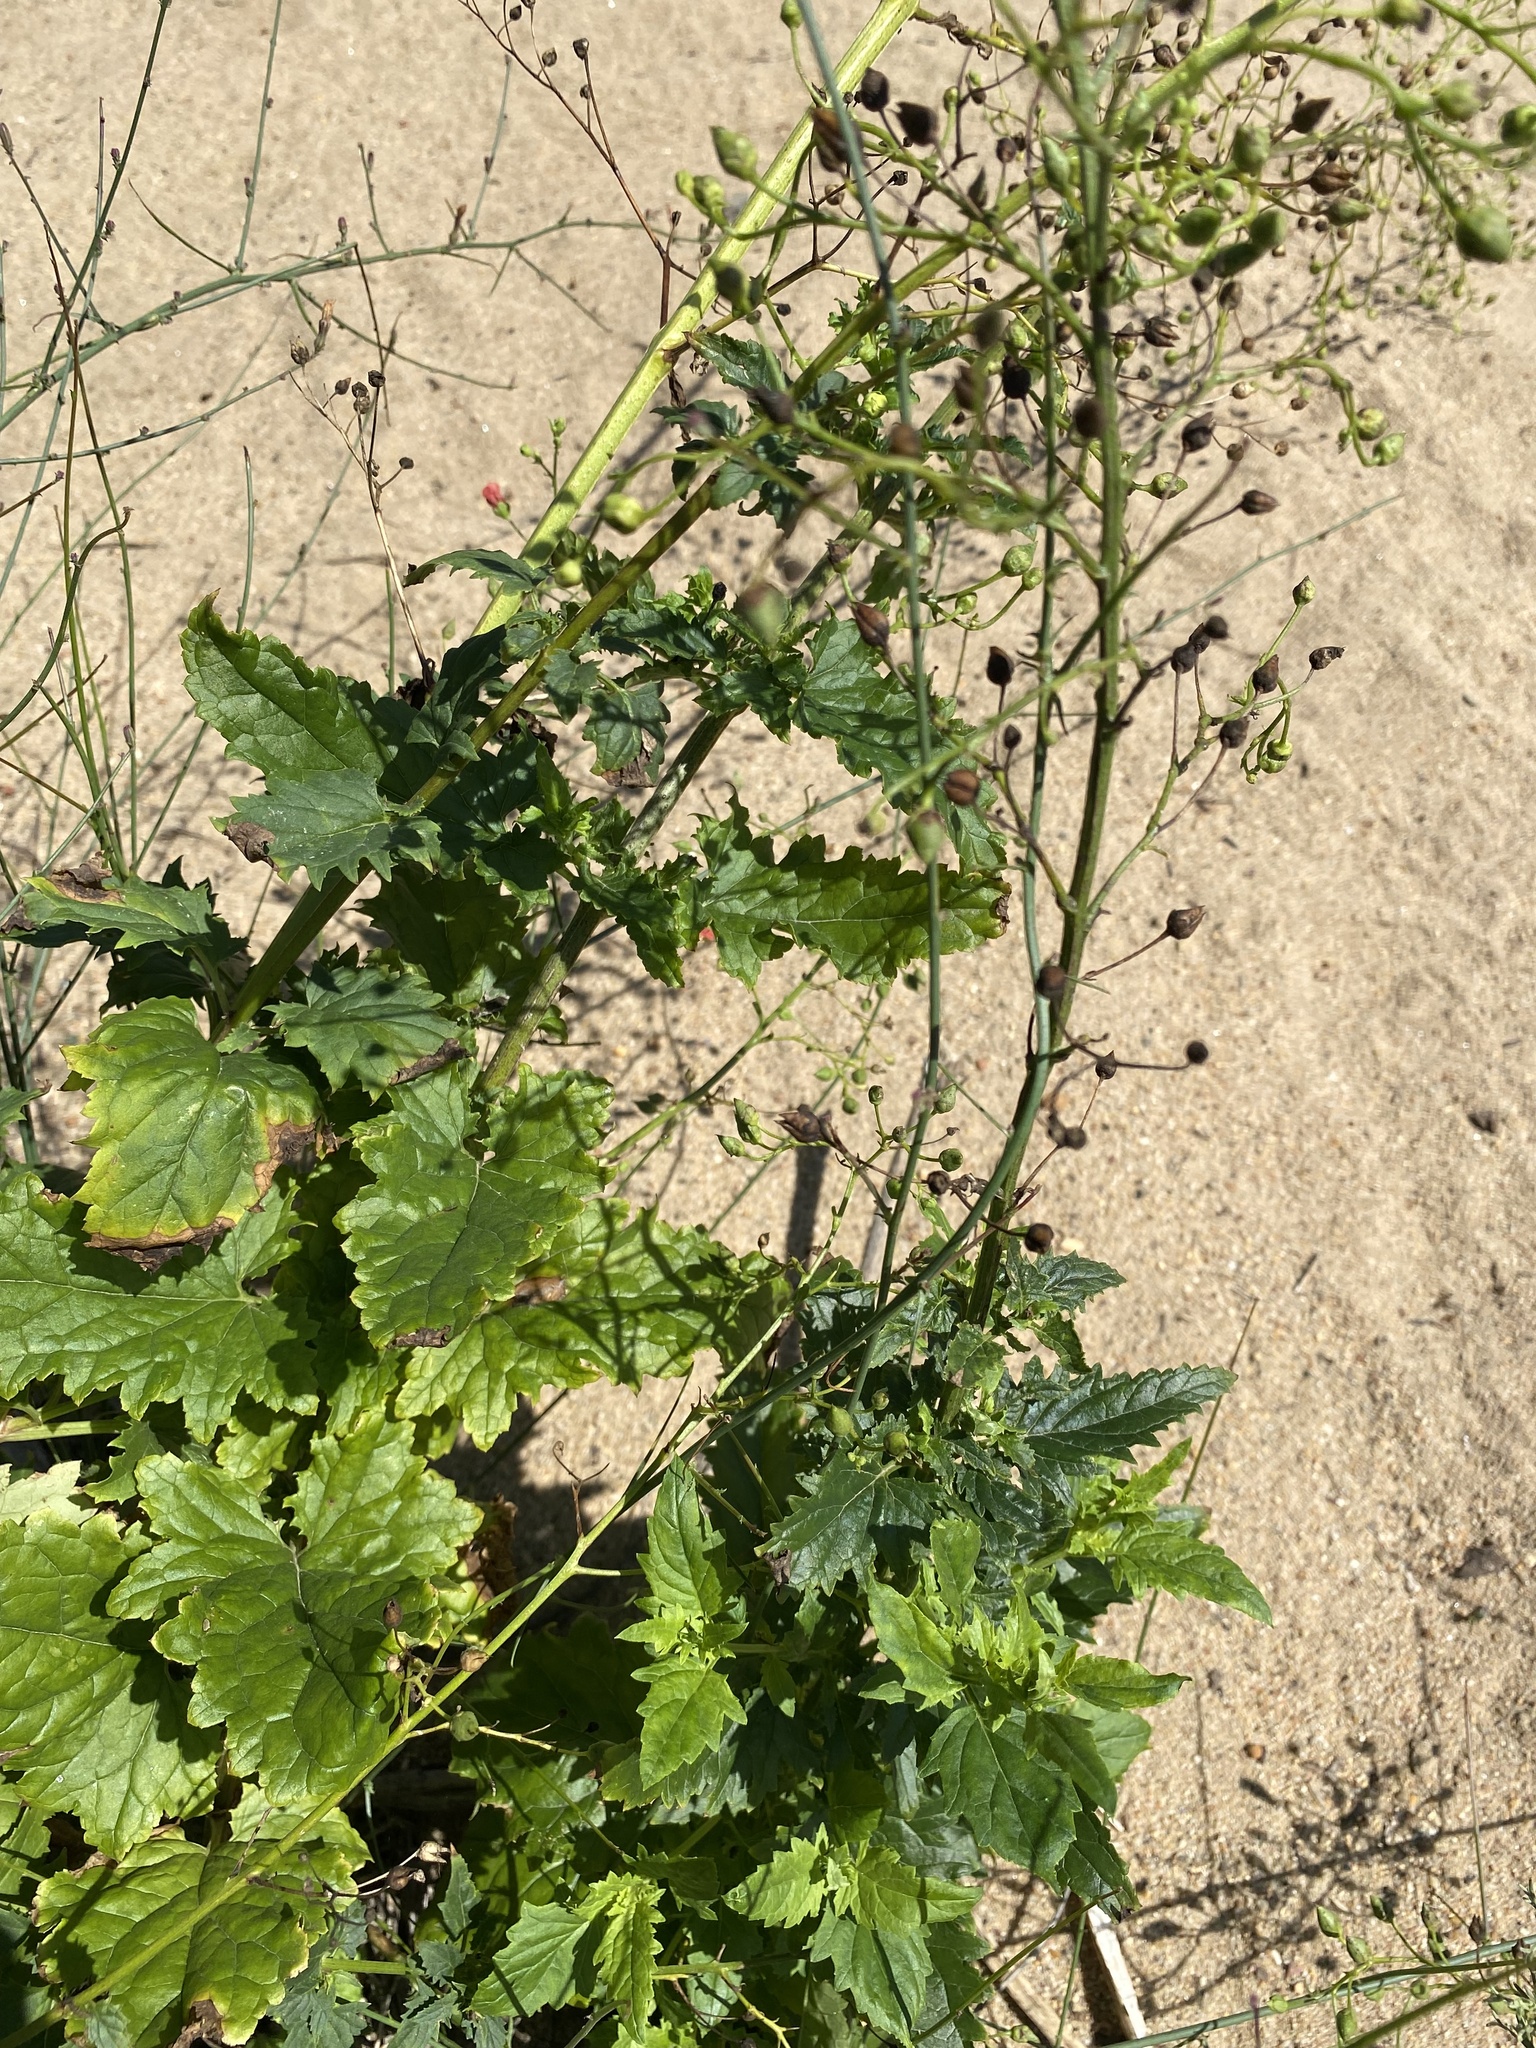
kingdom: Plantae
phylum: Tracheophyta
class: Magnoliopsida
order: Lamiales
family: Scrophulariaceae
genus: Scrophularia
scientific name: Scrophularia californica
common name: California figwort
